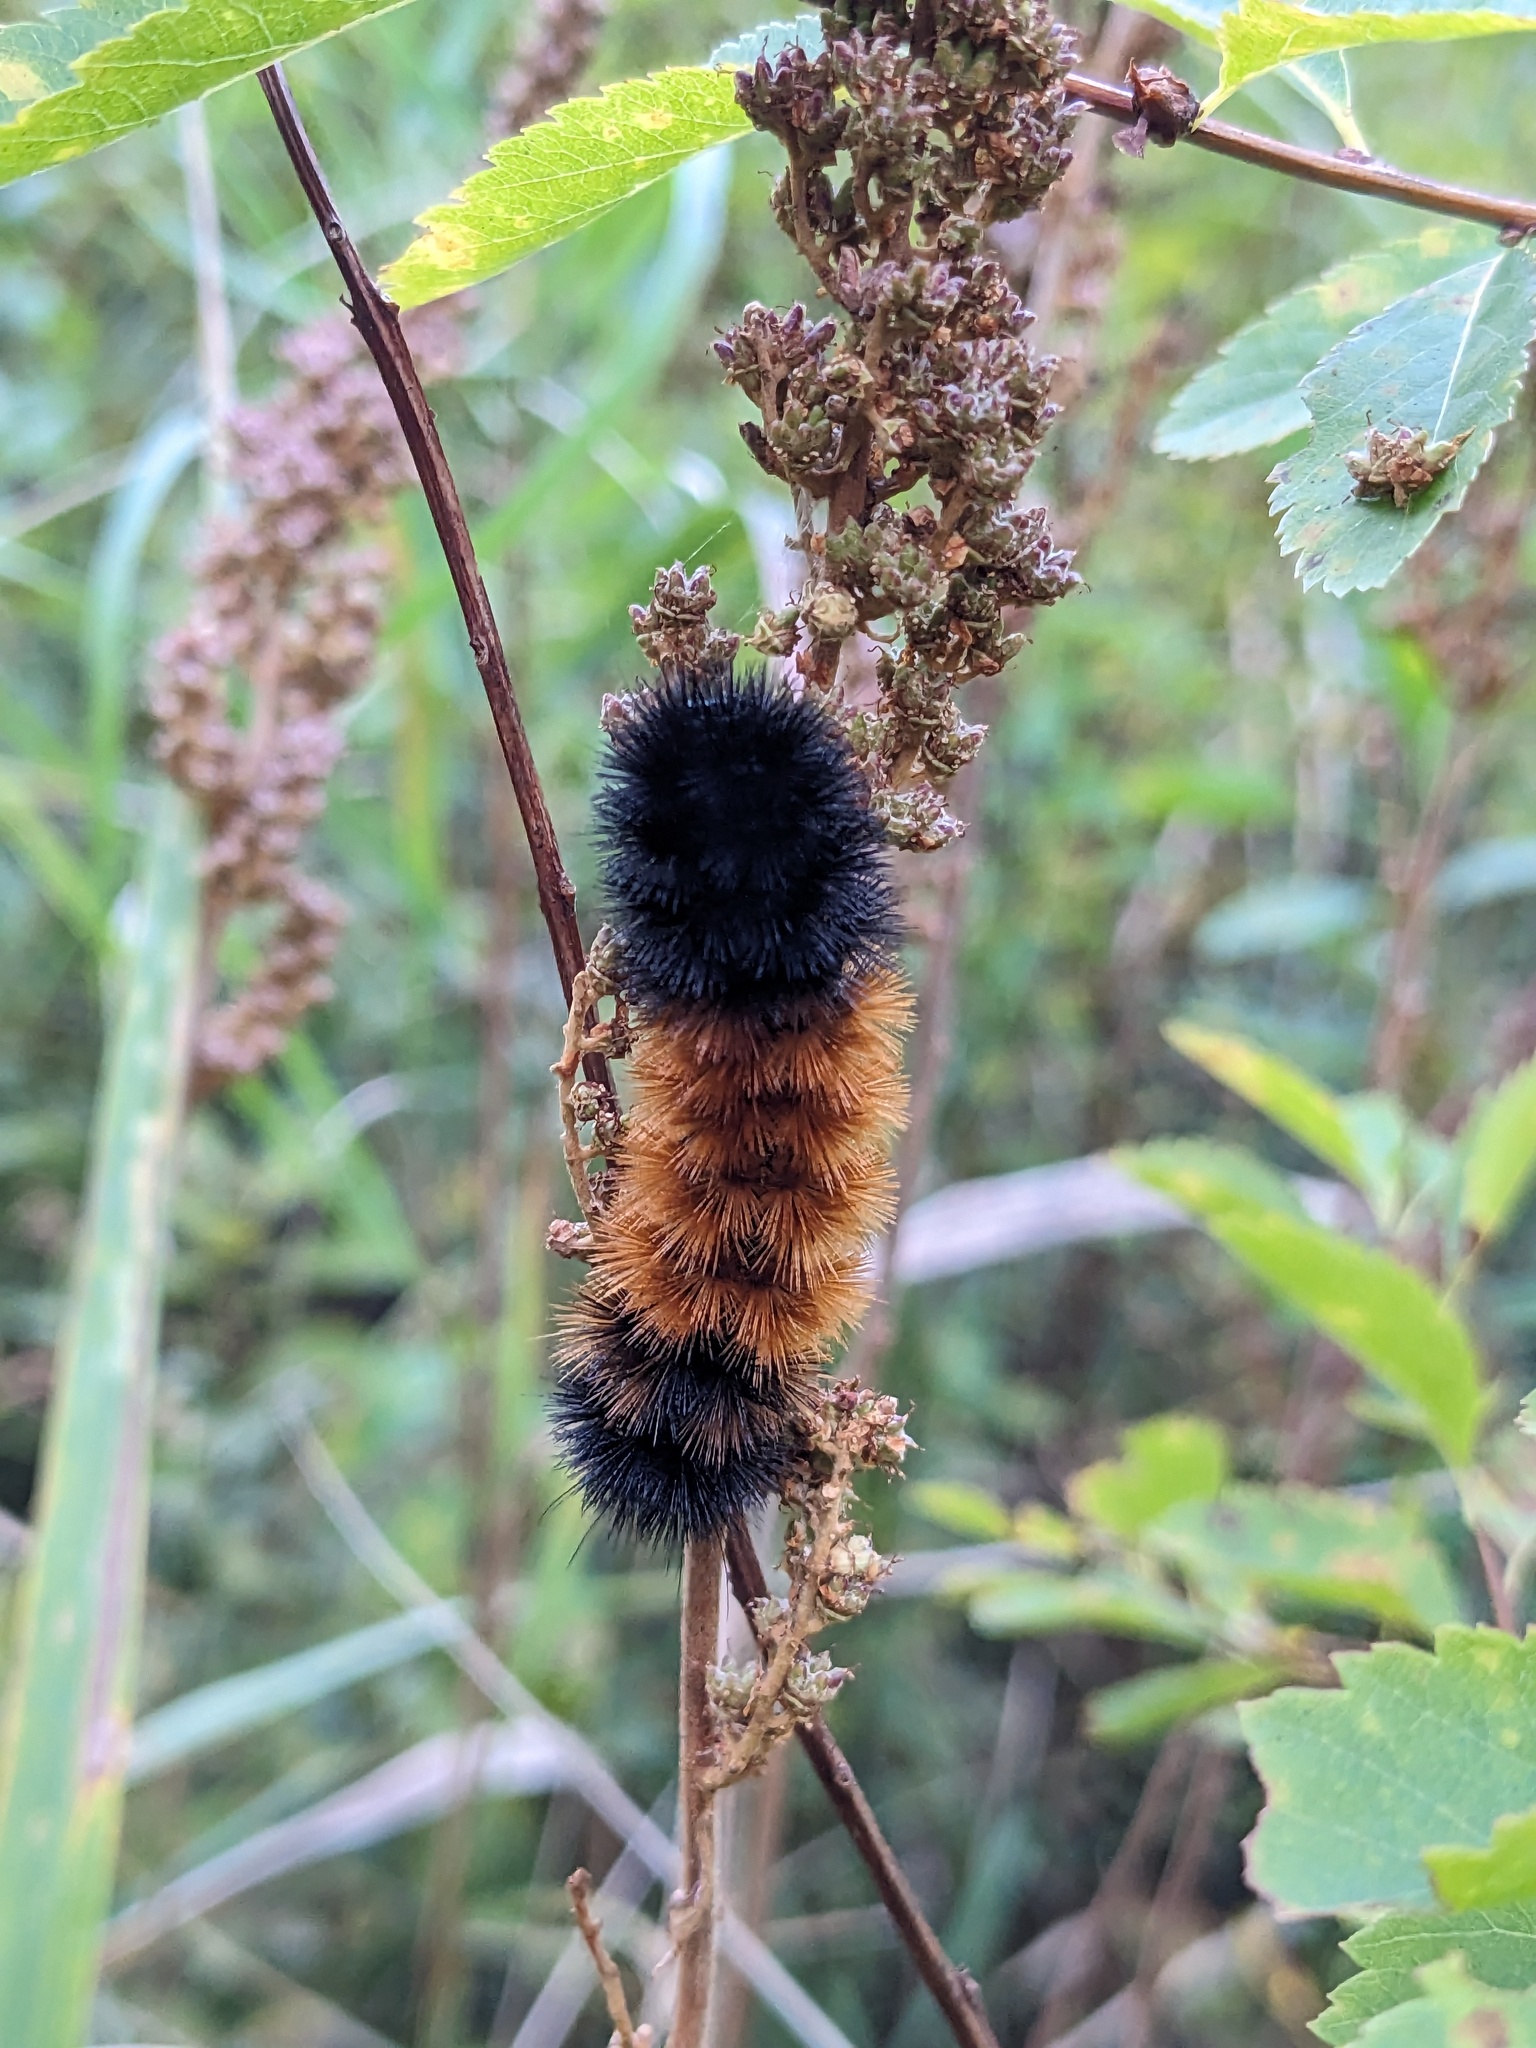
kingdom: Animalia
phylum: Arthropoda
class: Insecta
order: Lepidoptera
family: Erebidae
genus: Pyrrharctia
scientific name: Pyrrharctia isabella
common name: Isabella tiger moth
